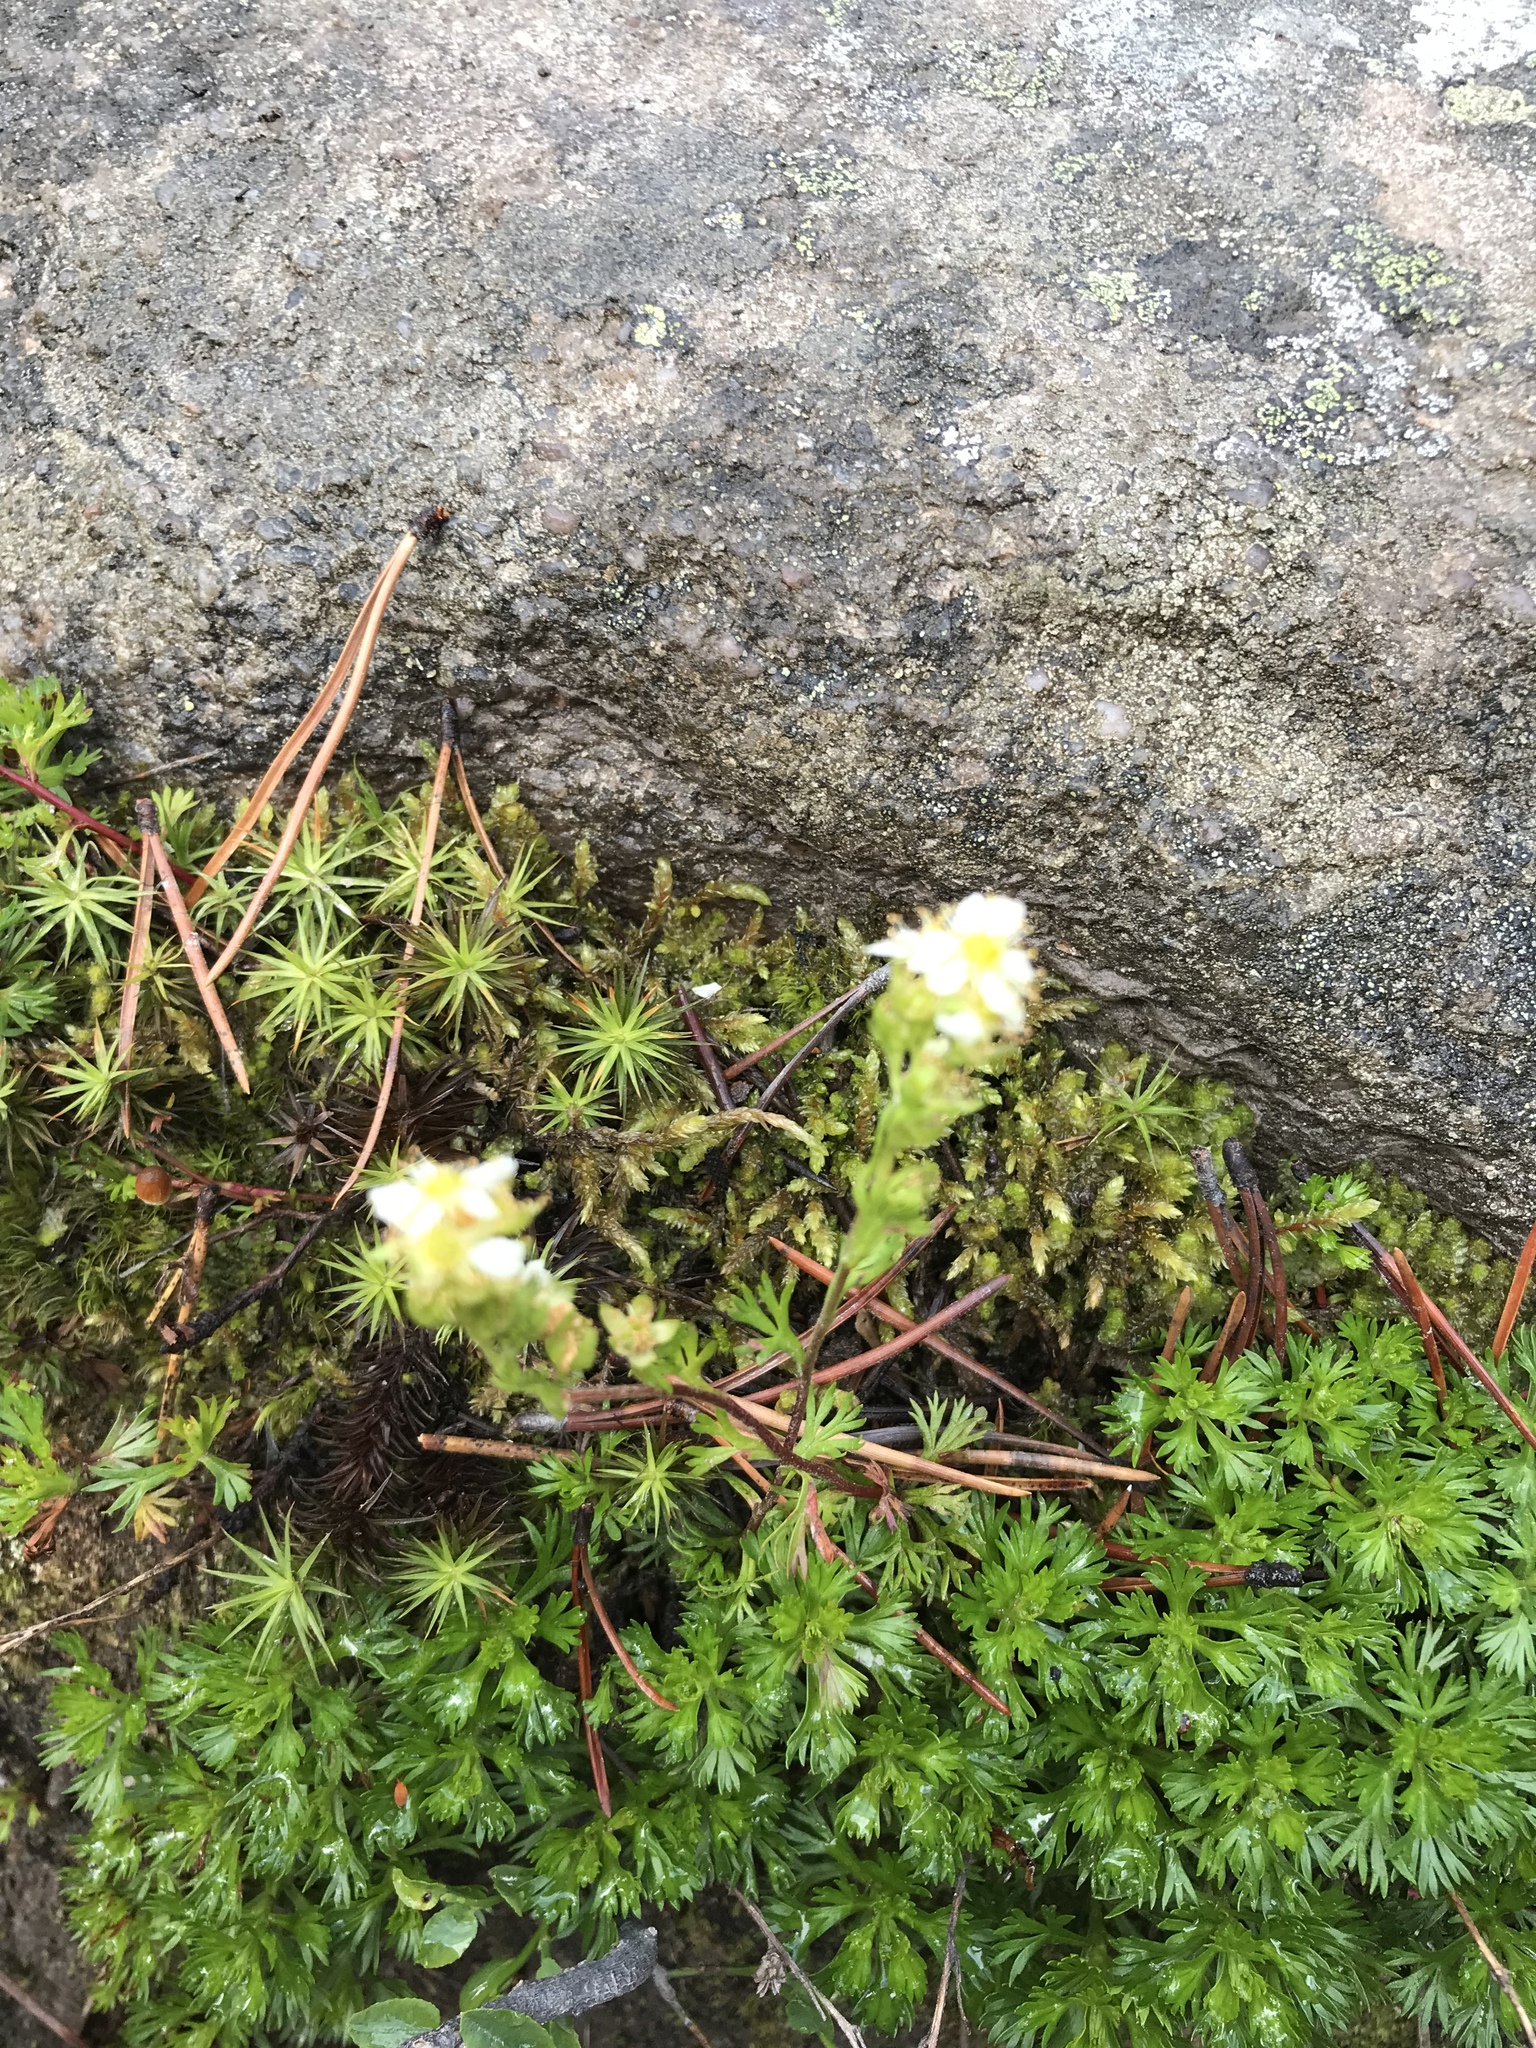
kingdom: Plantae
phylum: Tracheophyta
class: Magnoliopsida
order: Rosales
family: Rosaceae
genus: Luetkea
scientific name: Luetkea pectinata
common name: Partridgefoot
